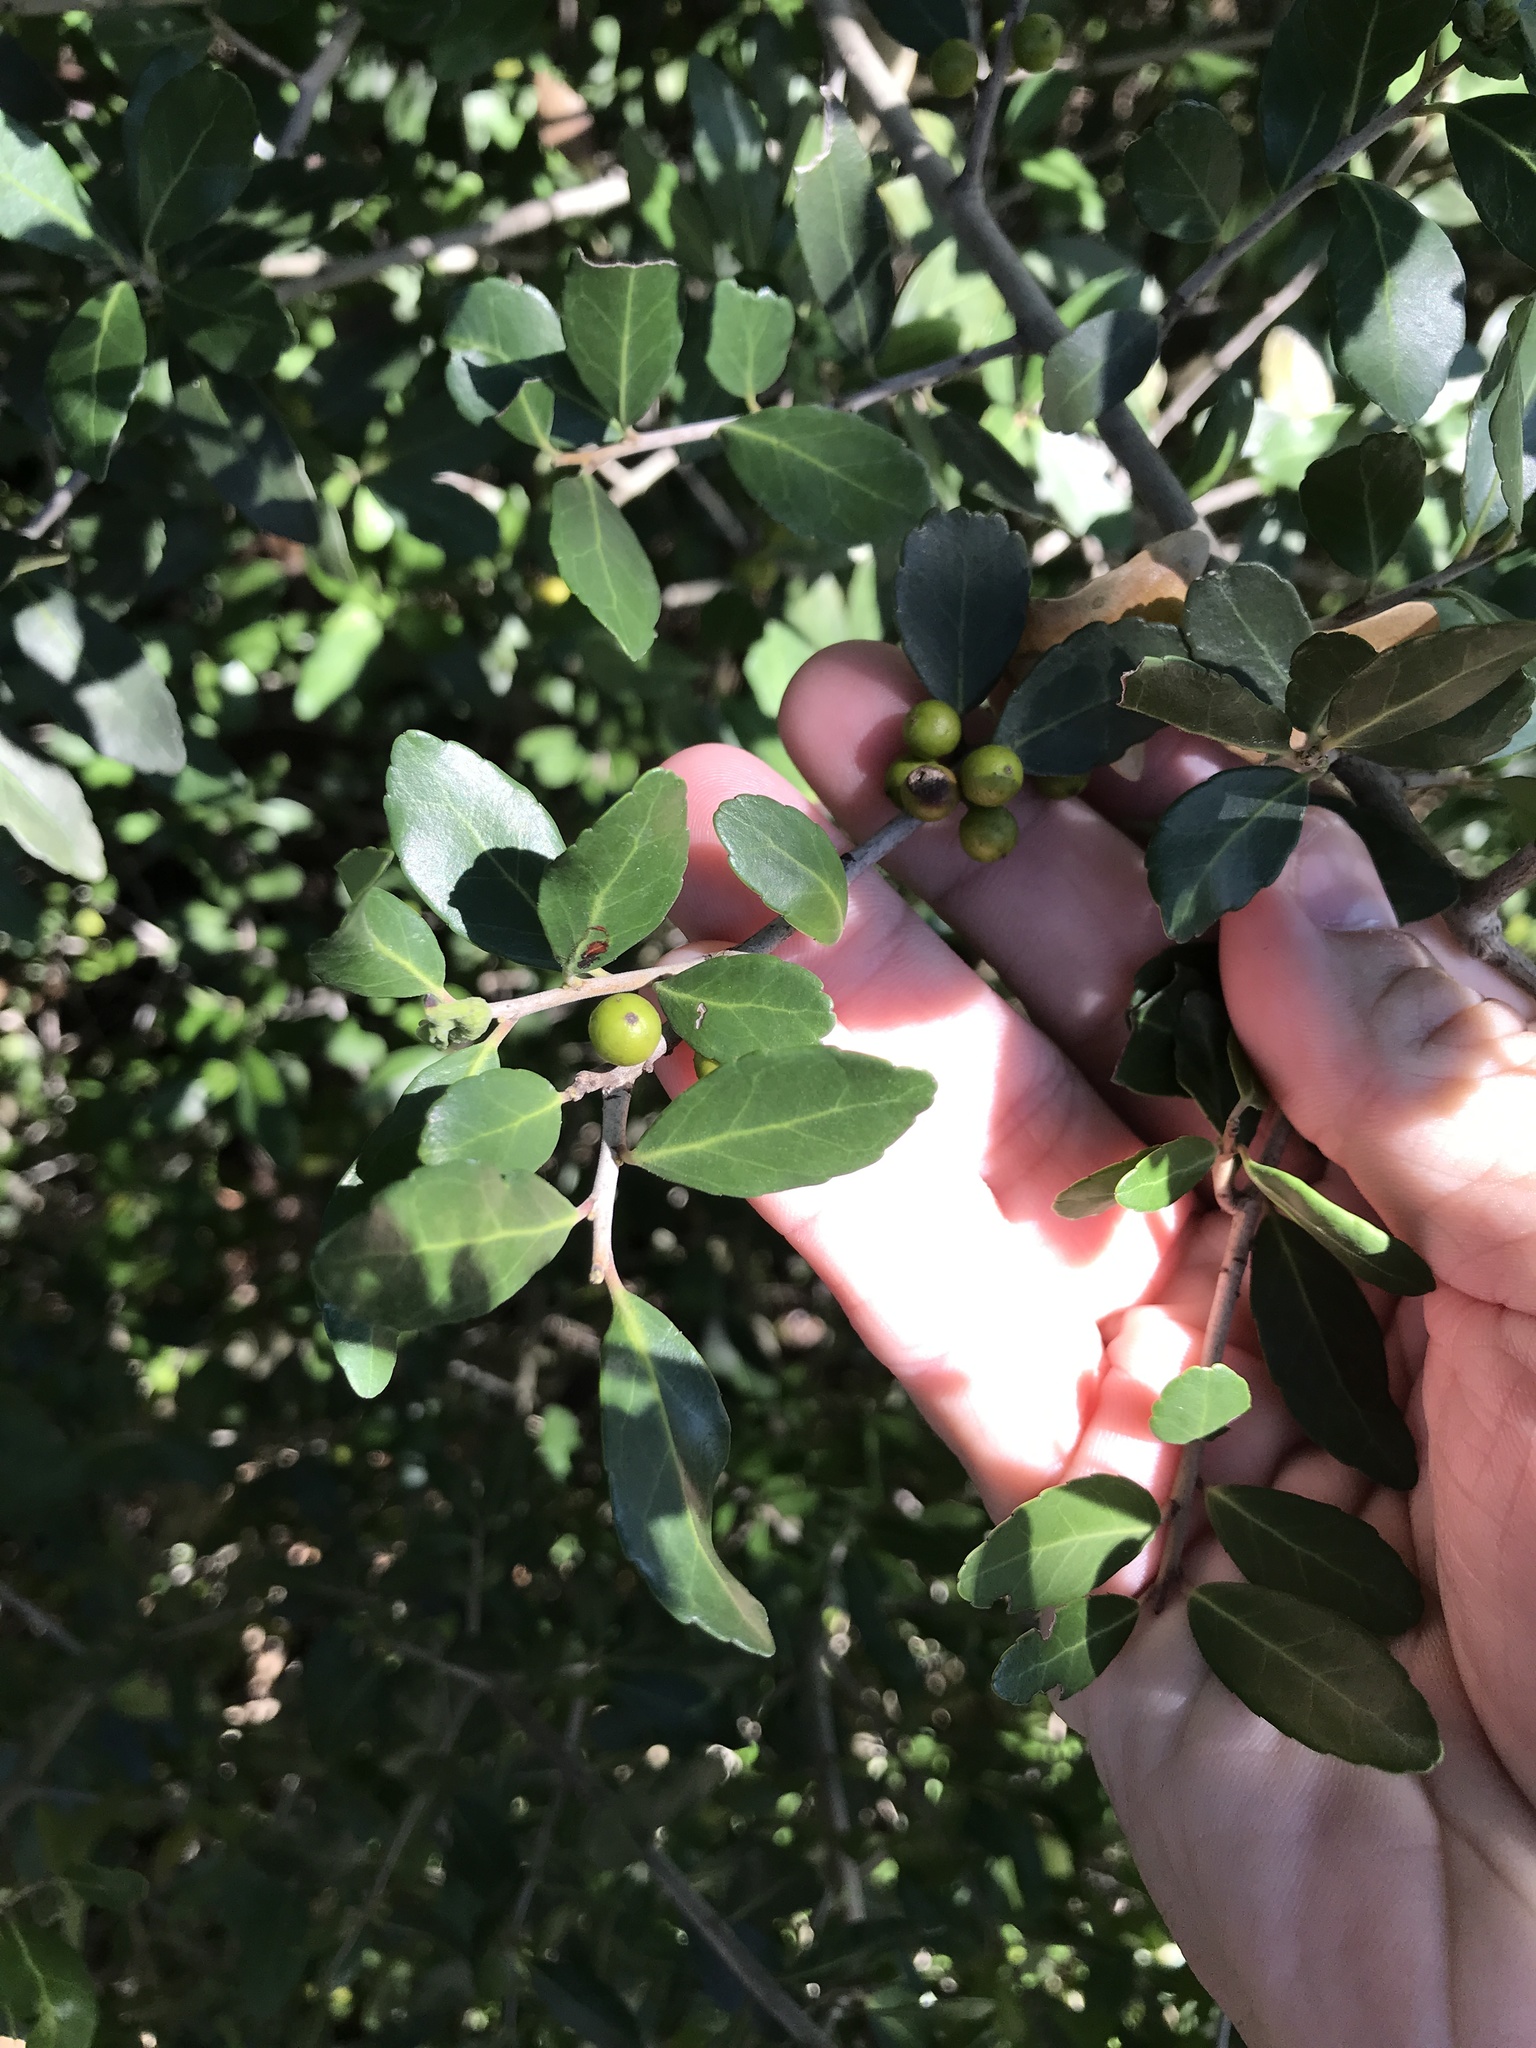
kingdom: Plantae
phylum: Tracheophyta
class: Magnoliopsida
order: Aquifoliales
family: Aquifoliaceae
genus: Ilex
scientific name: Ilex vomitoria
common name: Yaupon holly
